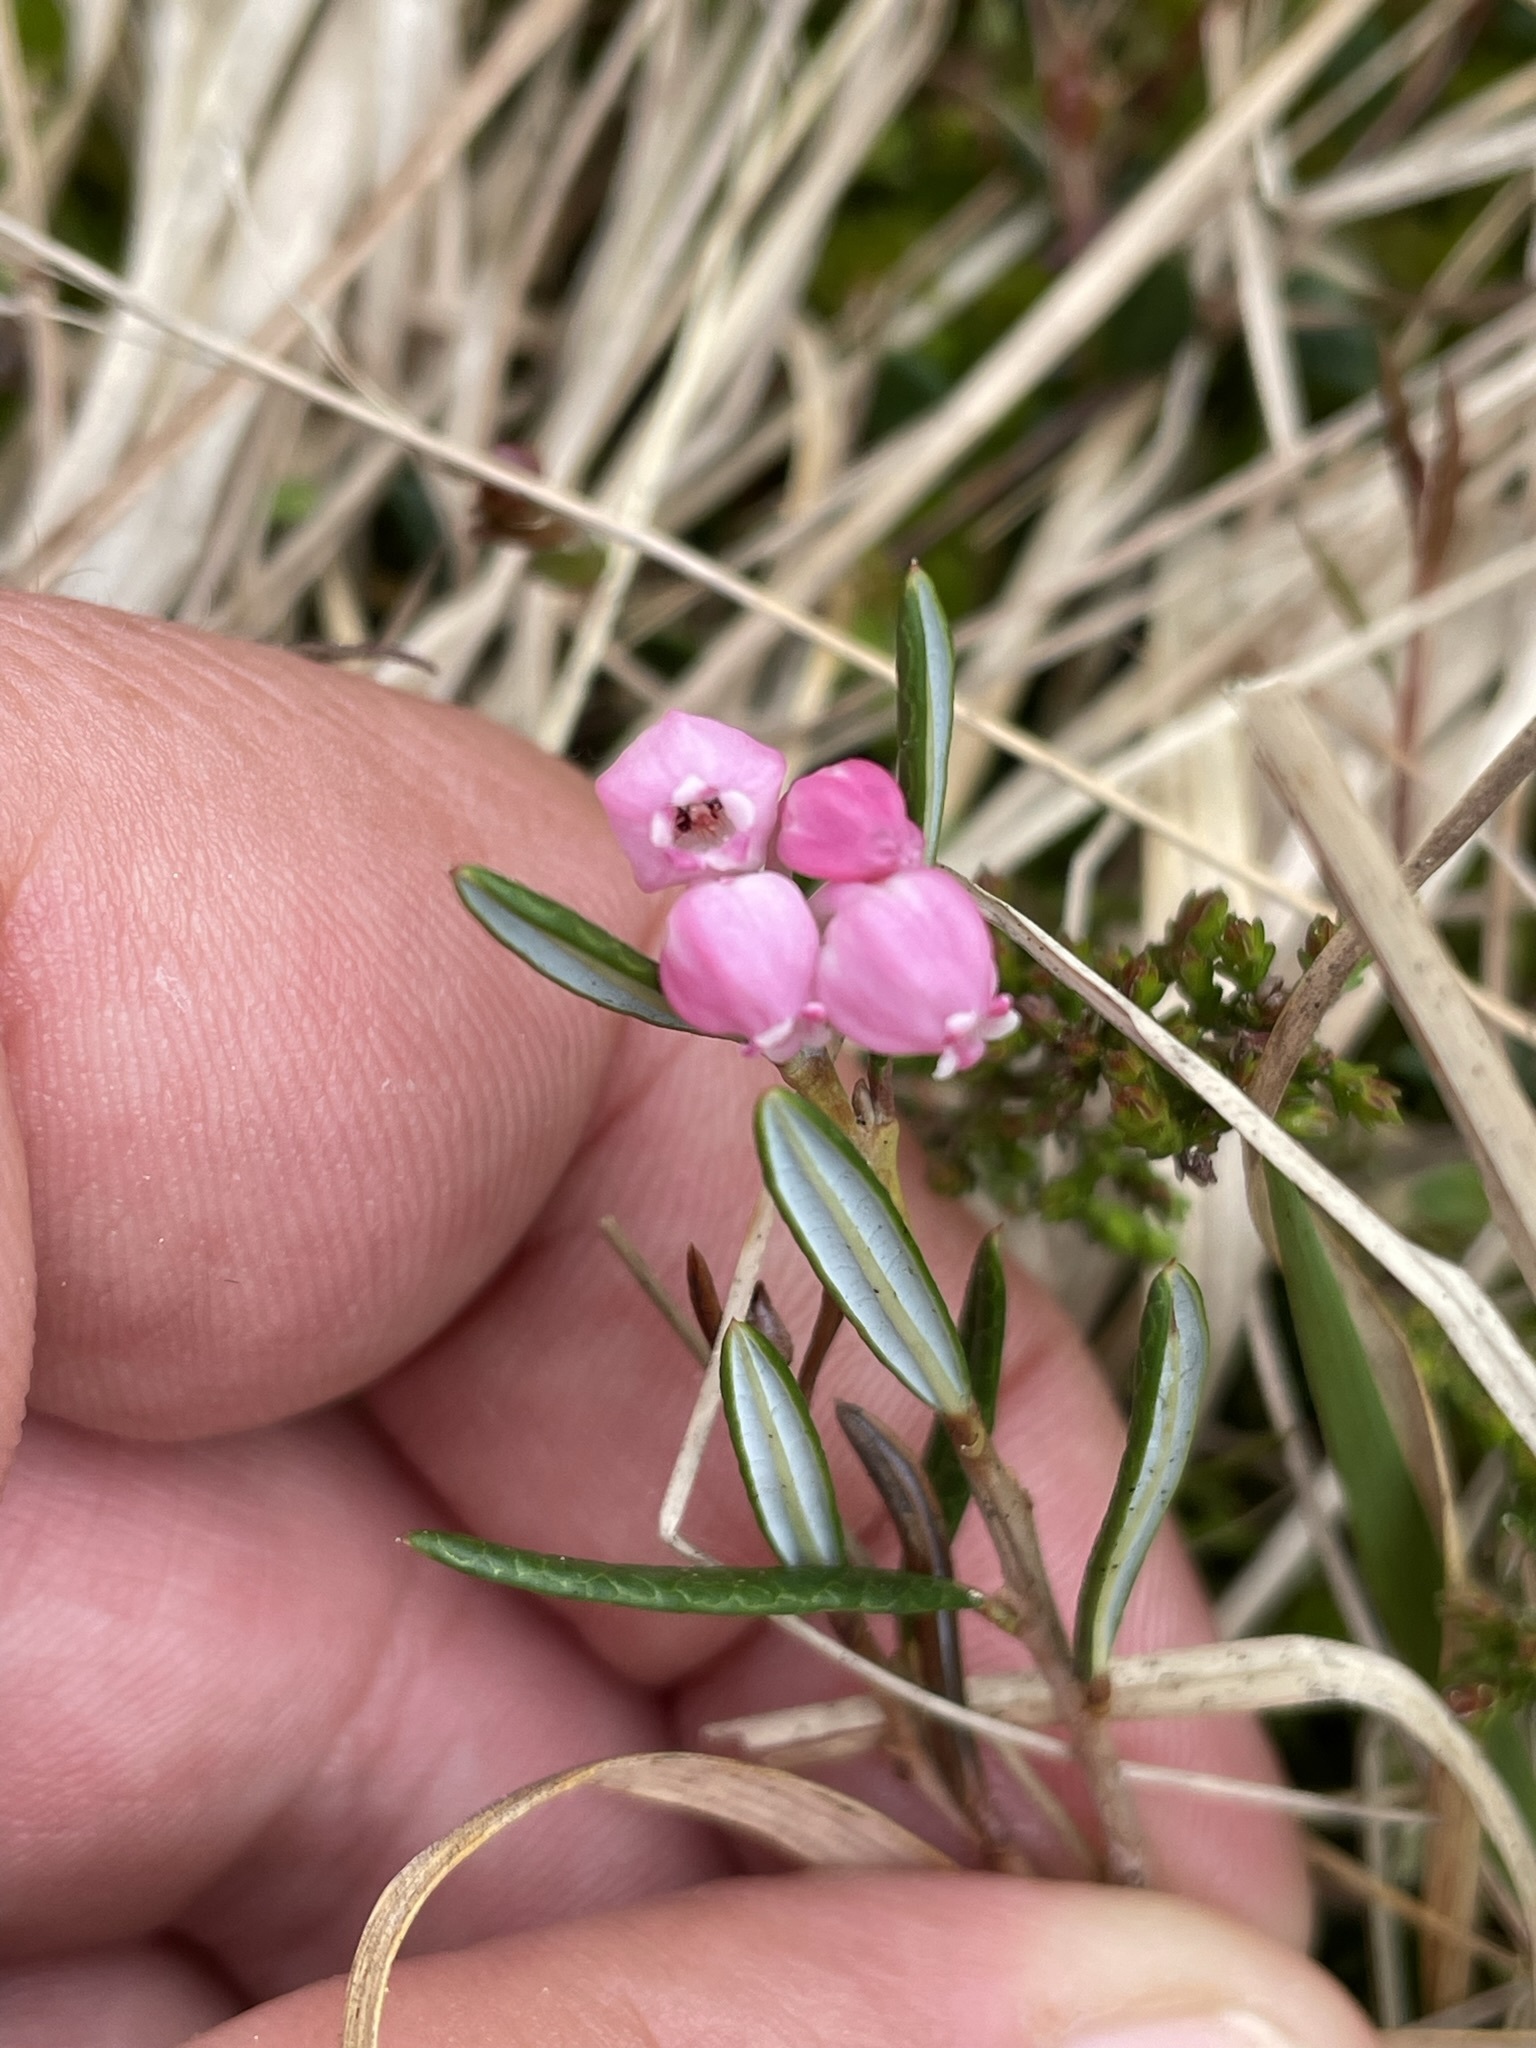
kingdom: Plantae
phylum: Tracheophyta
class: Magnoliopsida
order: Ericales
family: Ericaceae
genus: Andromeda
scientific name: Andromeda polifolia
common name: Bog-rosemary
